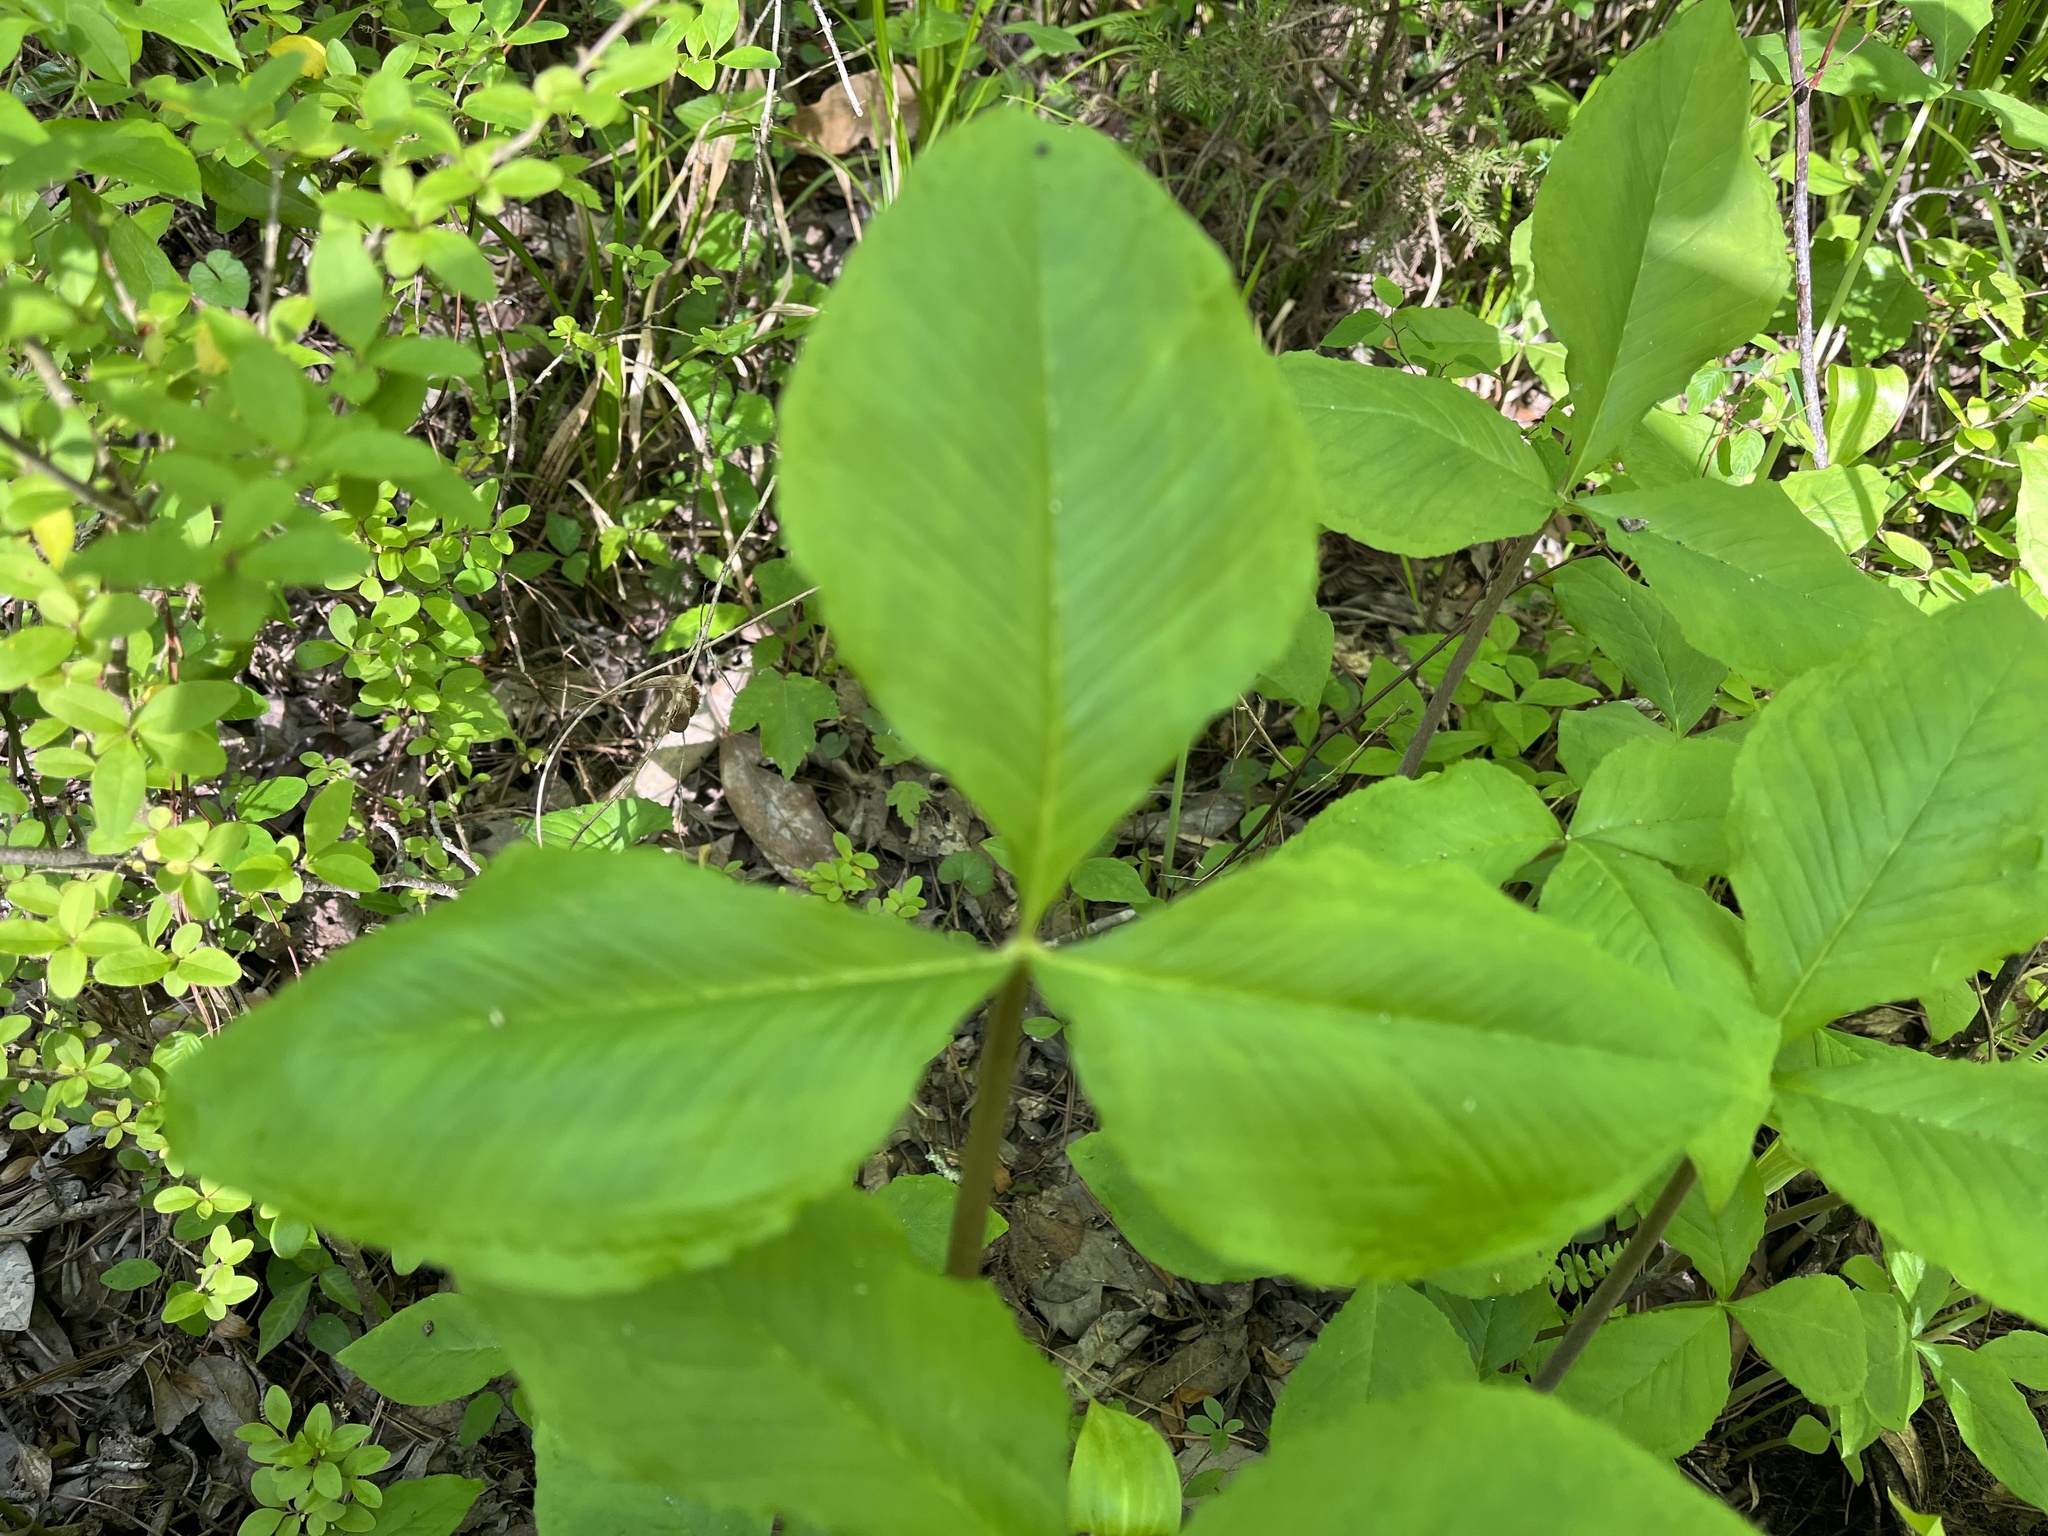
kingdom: Plantae
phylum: Tracheophyta
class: Liliopsida
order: Alismatales
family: Araceae
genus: Arisaema
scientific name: Arisaema pusillum
